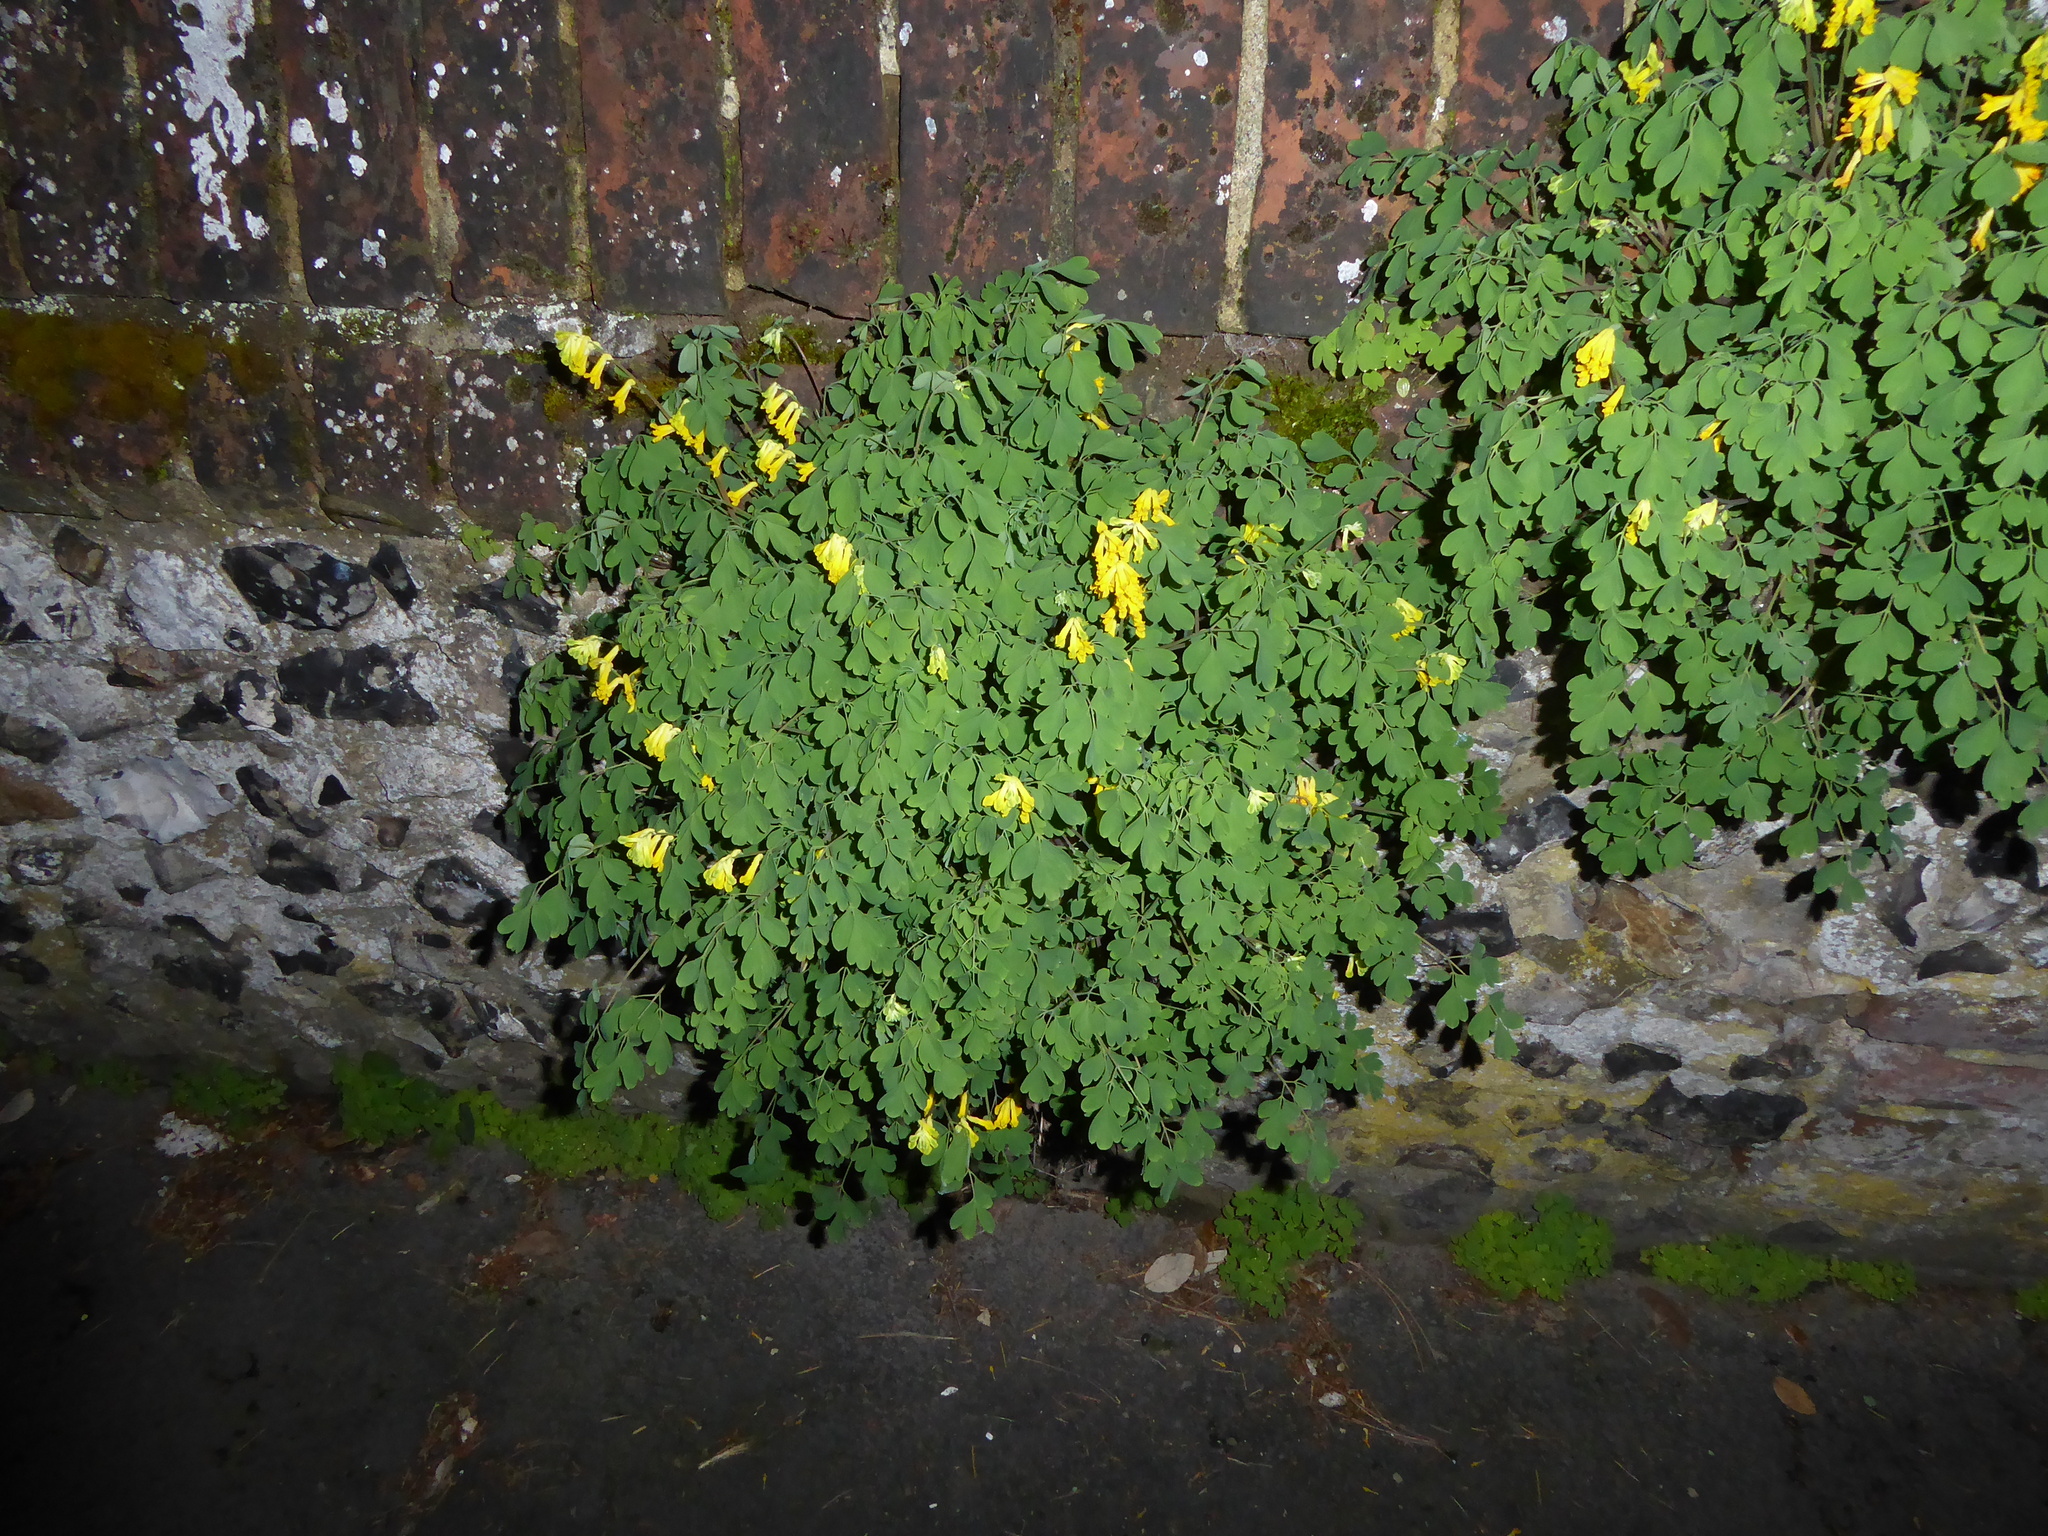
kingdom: Plantae
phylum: Tracheophyta
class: Magnoliopsida
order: Ranunculales
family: Papaveraceae
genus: Pseudofumaria
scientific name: Pseudofumaria lutea
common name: Yellow corydalis
